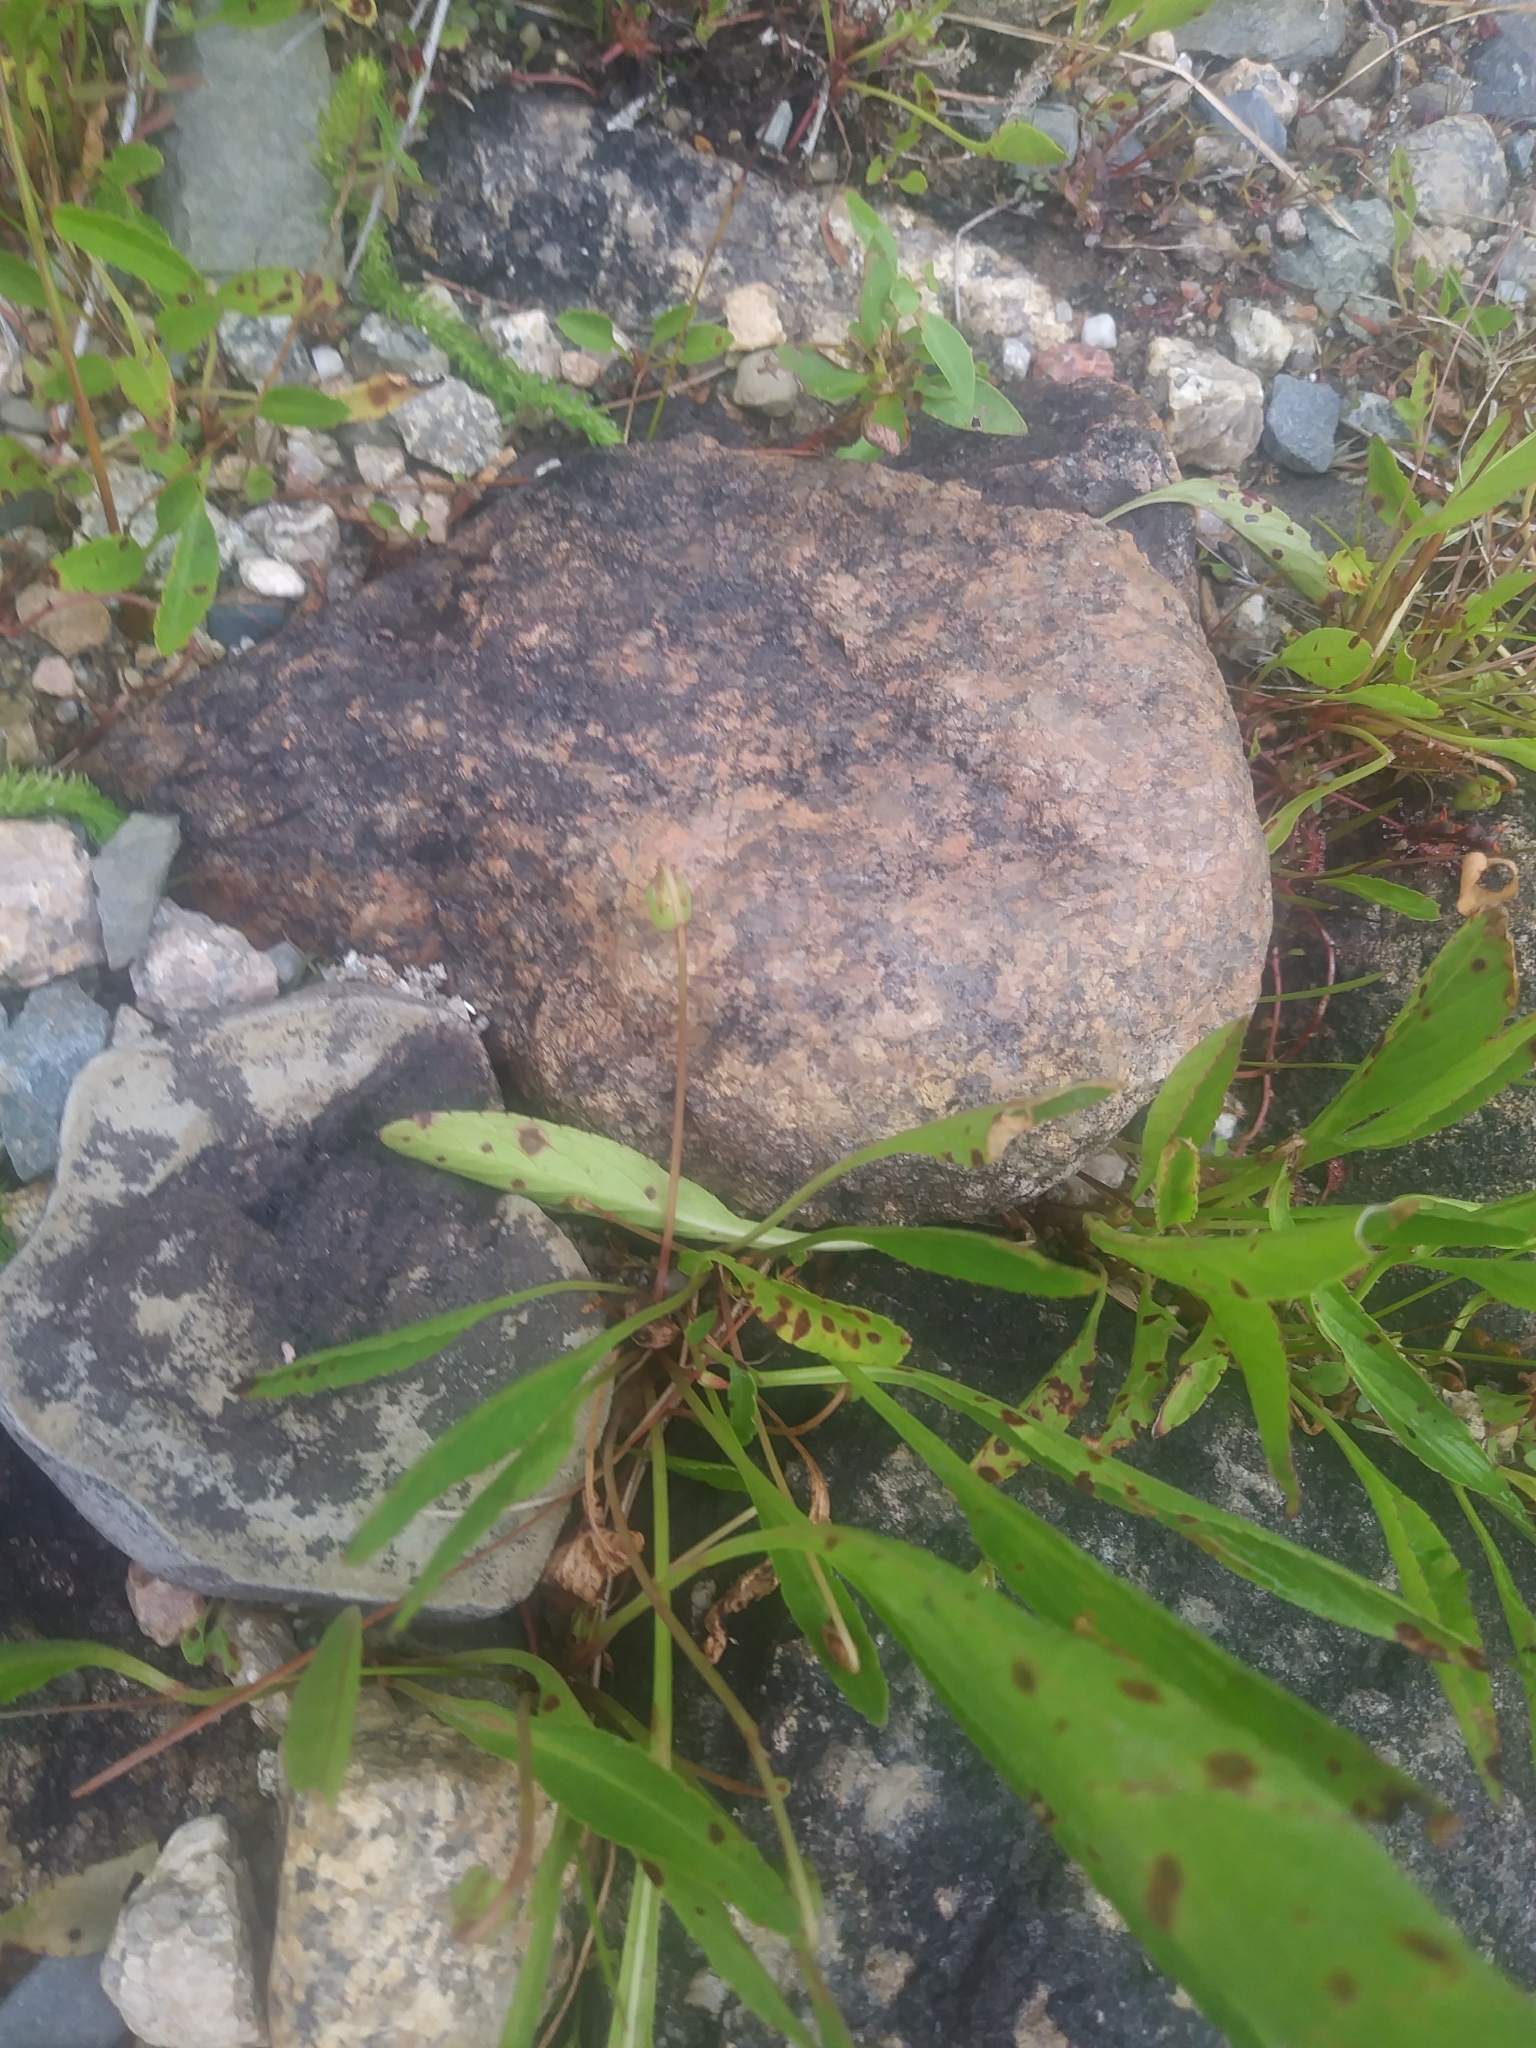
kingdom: Plantae
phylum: Tracheophyta
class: Magnoliopsida
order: Malpighiales
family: Violaceae
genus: Viola
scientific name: Viola lanceolata
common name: Bog white violet
